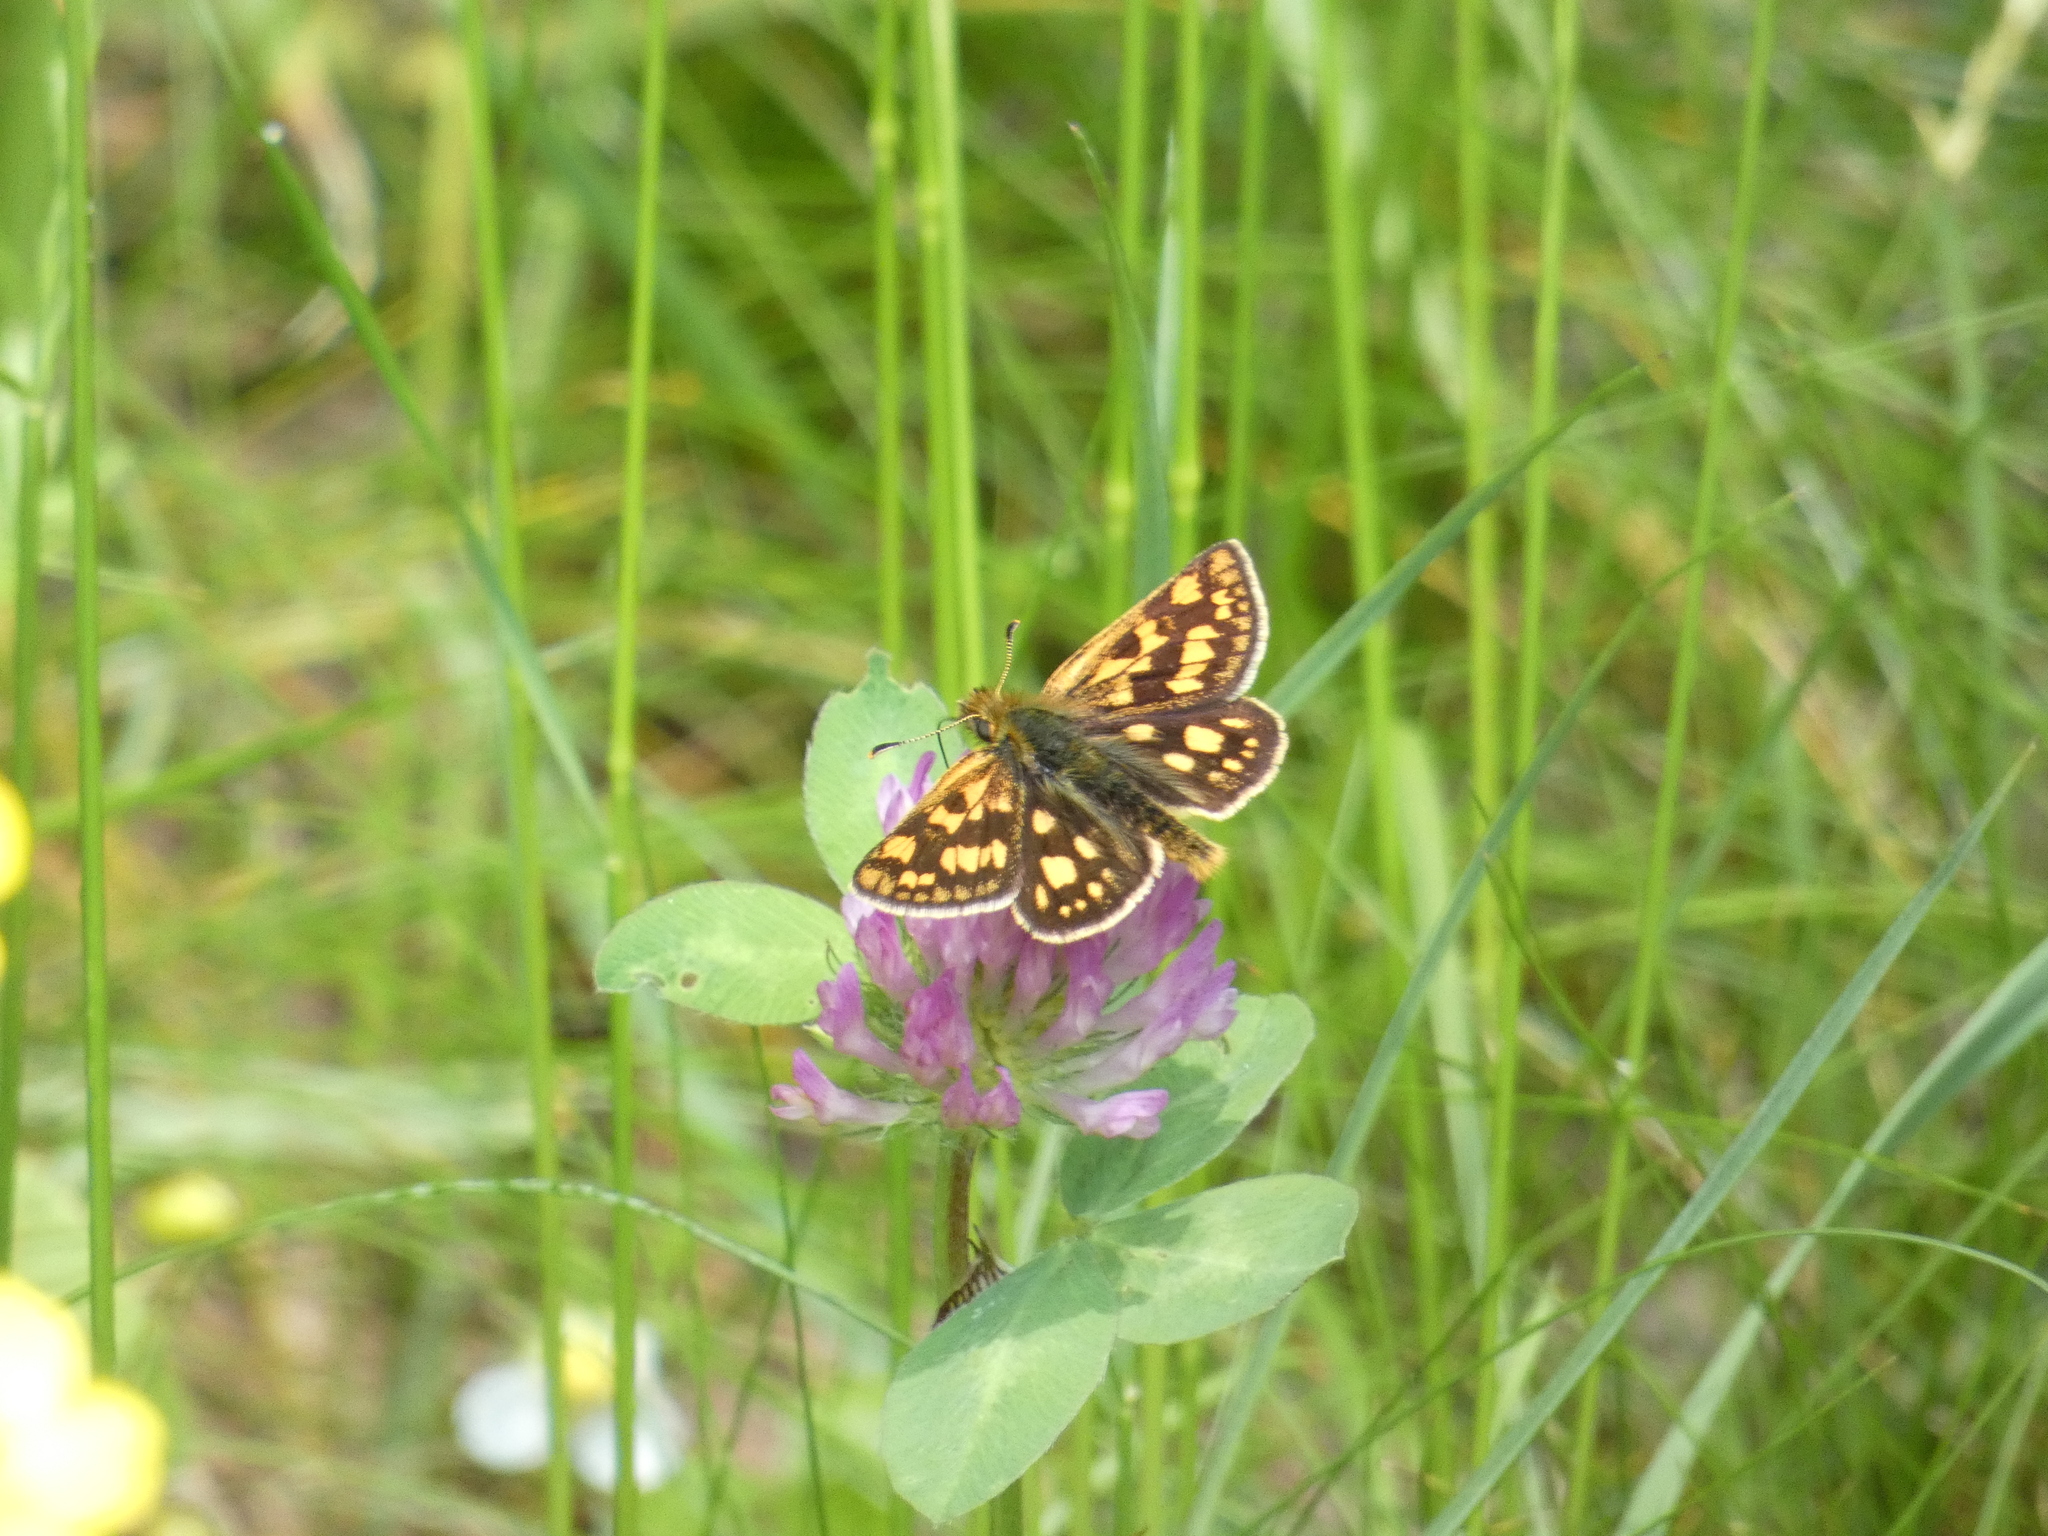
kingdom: Animalia
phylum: Arthropoda
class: Insecta
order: Lepidoptera
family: Hesperiidae
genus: Carterocephalus
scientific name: Carterocephalus palaemon
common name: Chequered skipper
